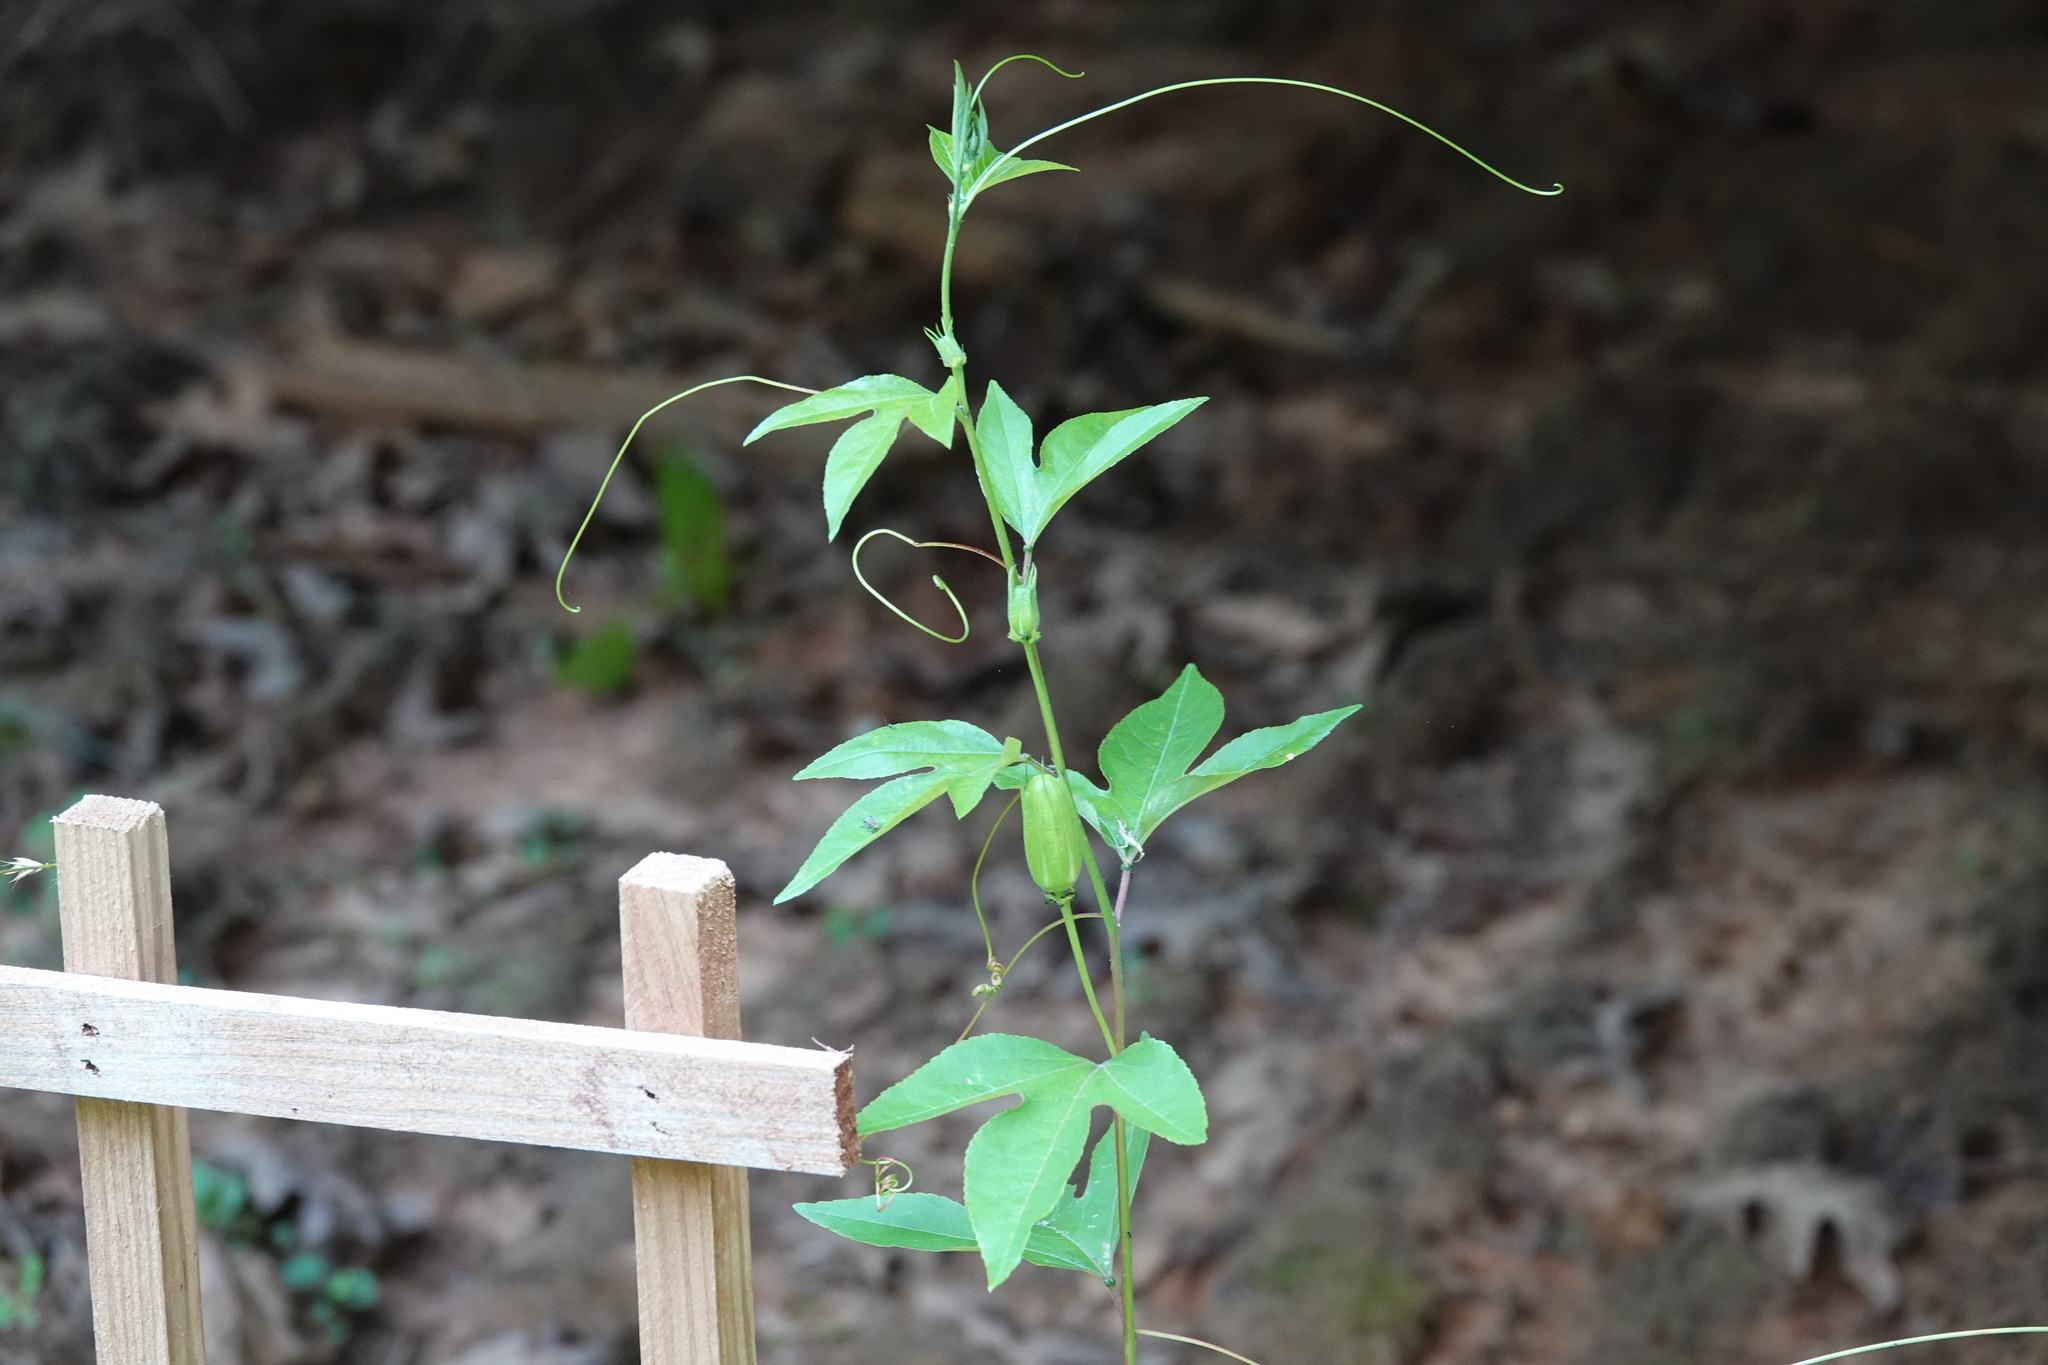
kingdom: Plantae
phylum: Tracheophyta
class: Magnoliopsida
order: Malpighiales
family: Passifloraceae
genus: Passiflora
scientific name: Passiflora incarnata
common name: Apricot-vine
